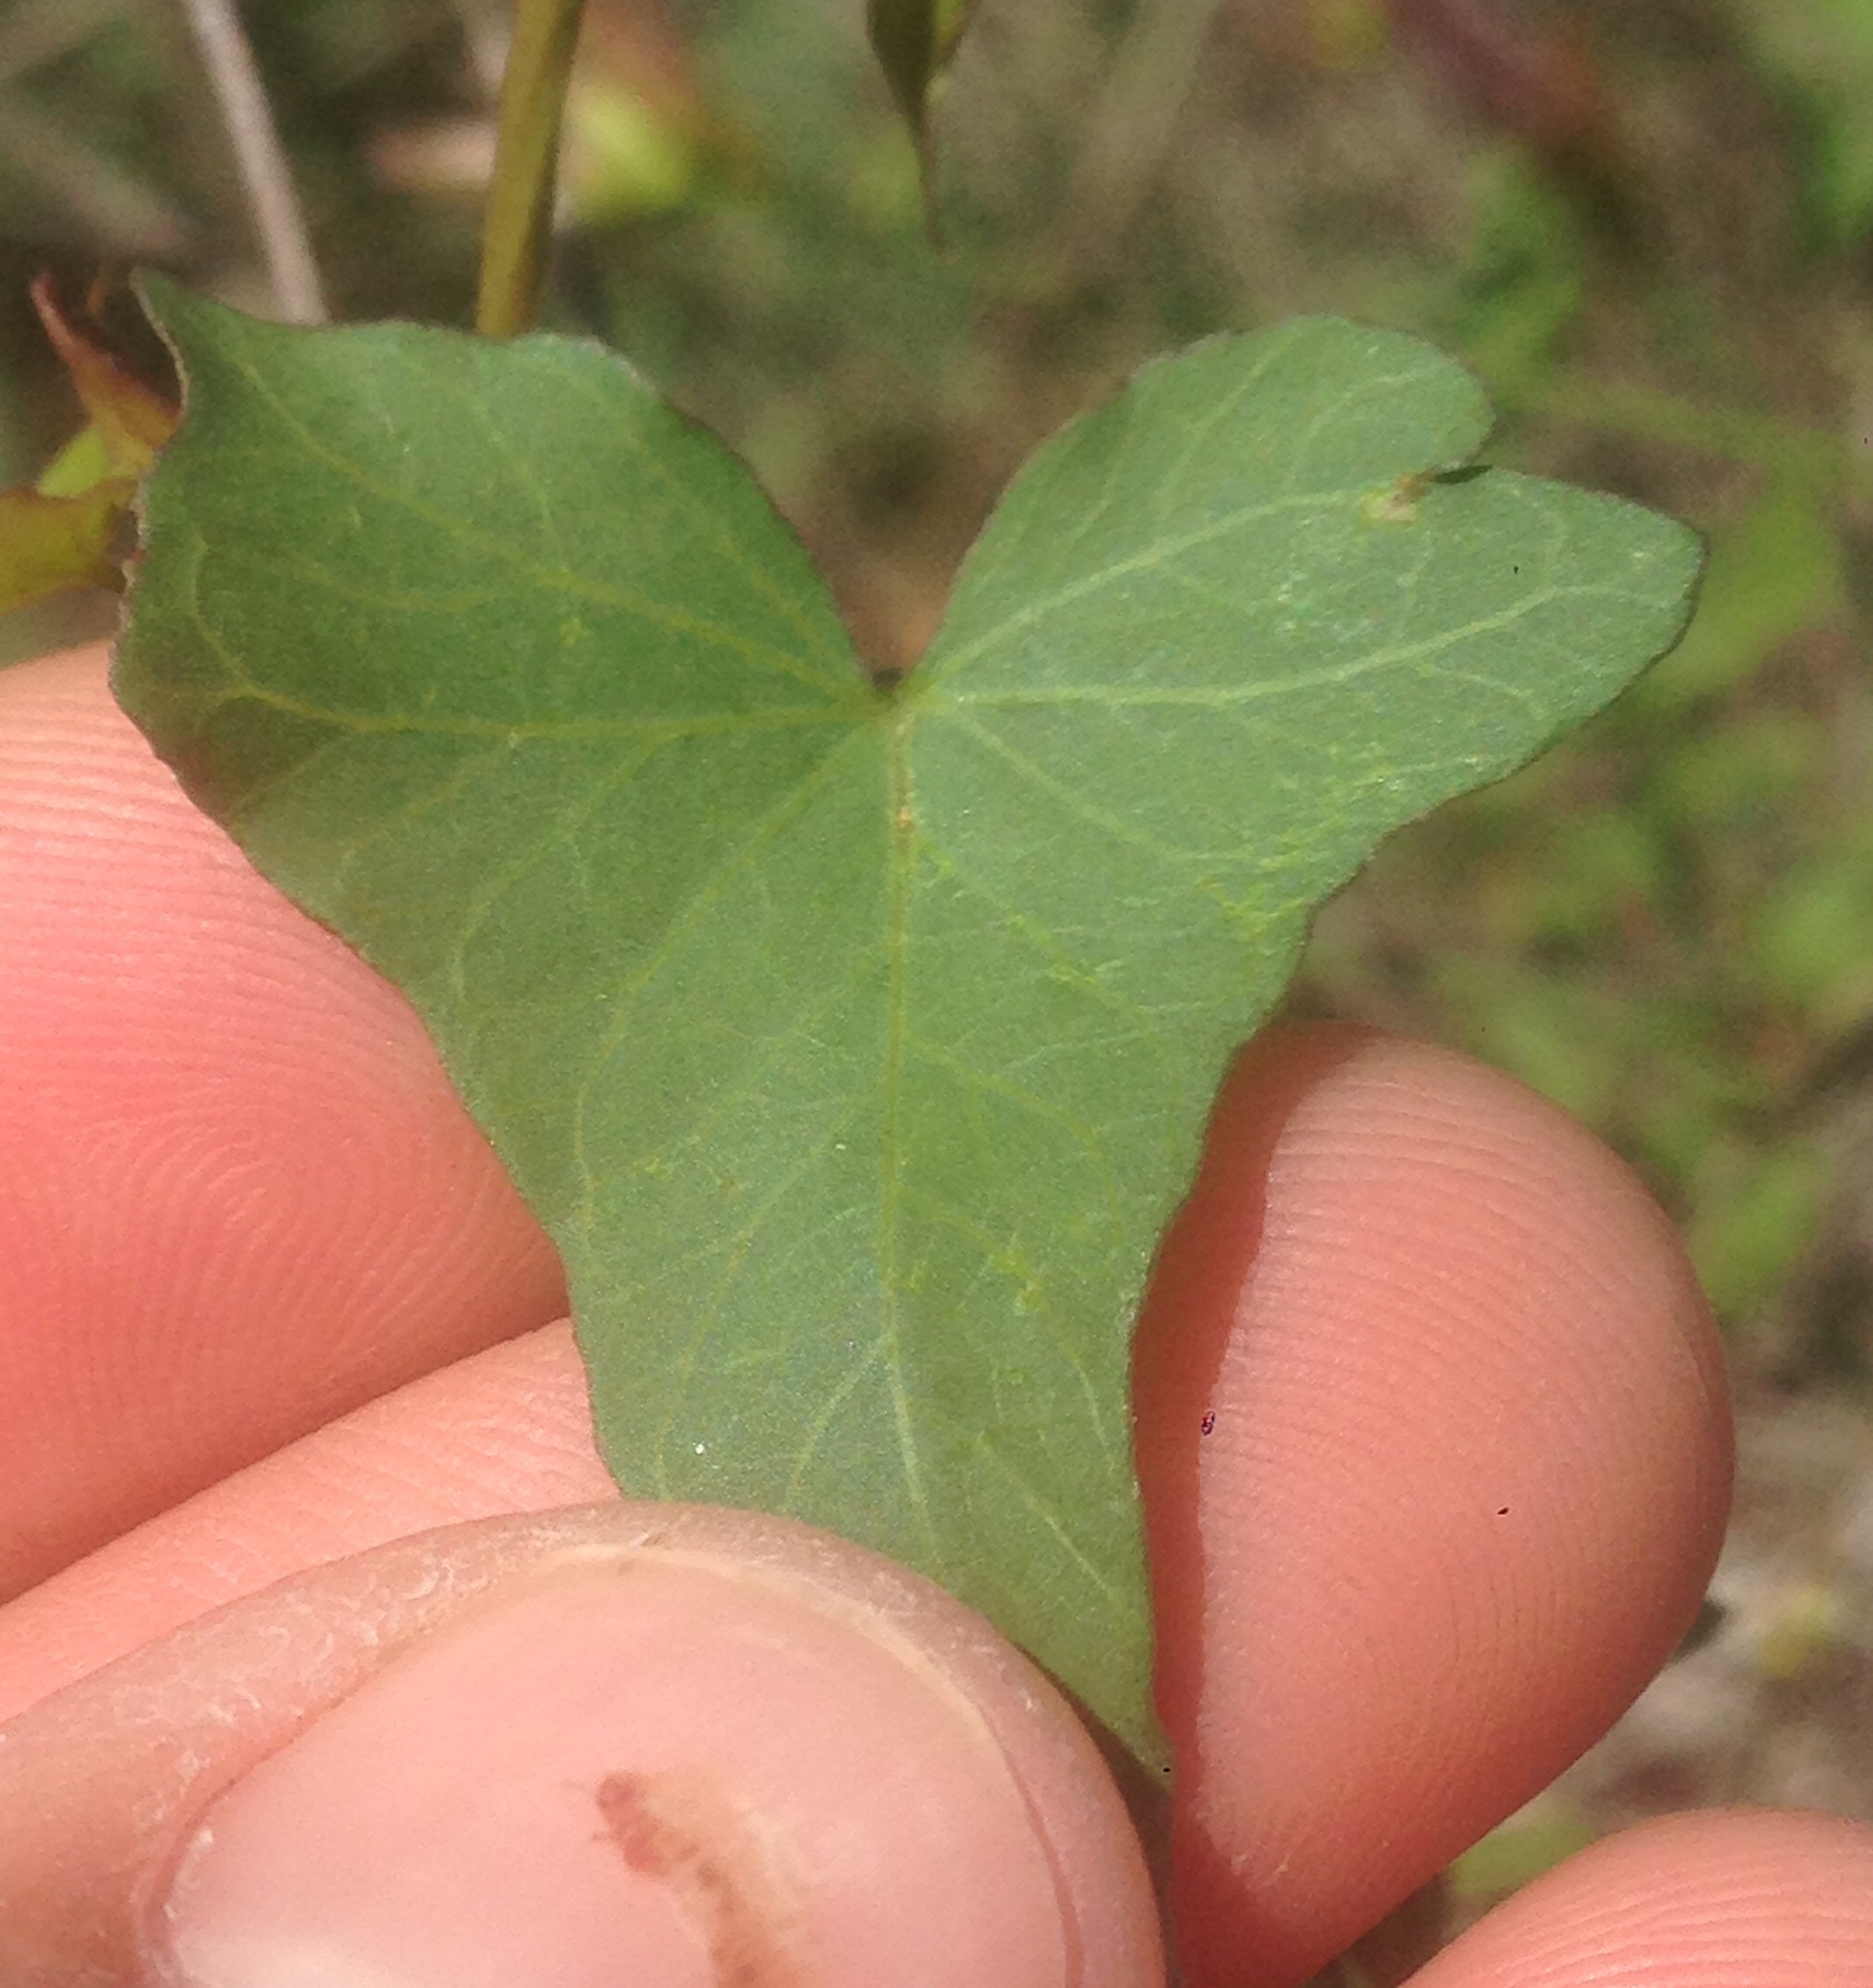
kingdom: Plantae
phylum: Tracheophyta
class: Magnoliopsida
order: Solanales
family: Convolvulaceae
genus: Calystegia
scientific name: Calystegia purpurata
